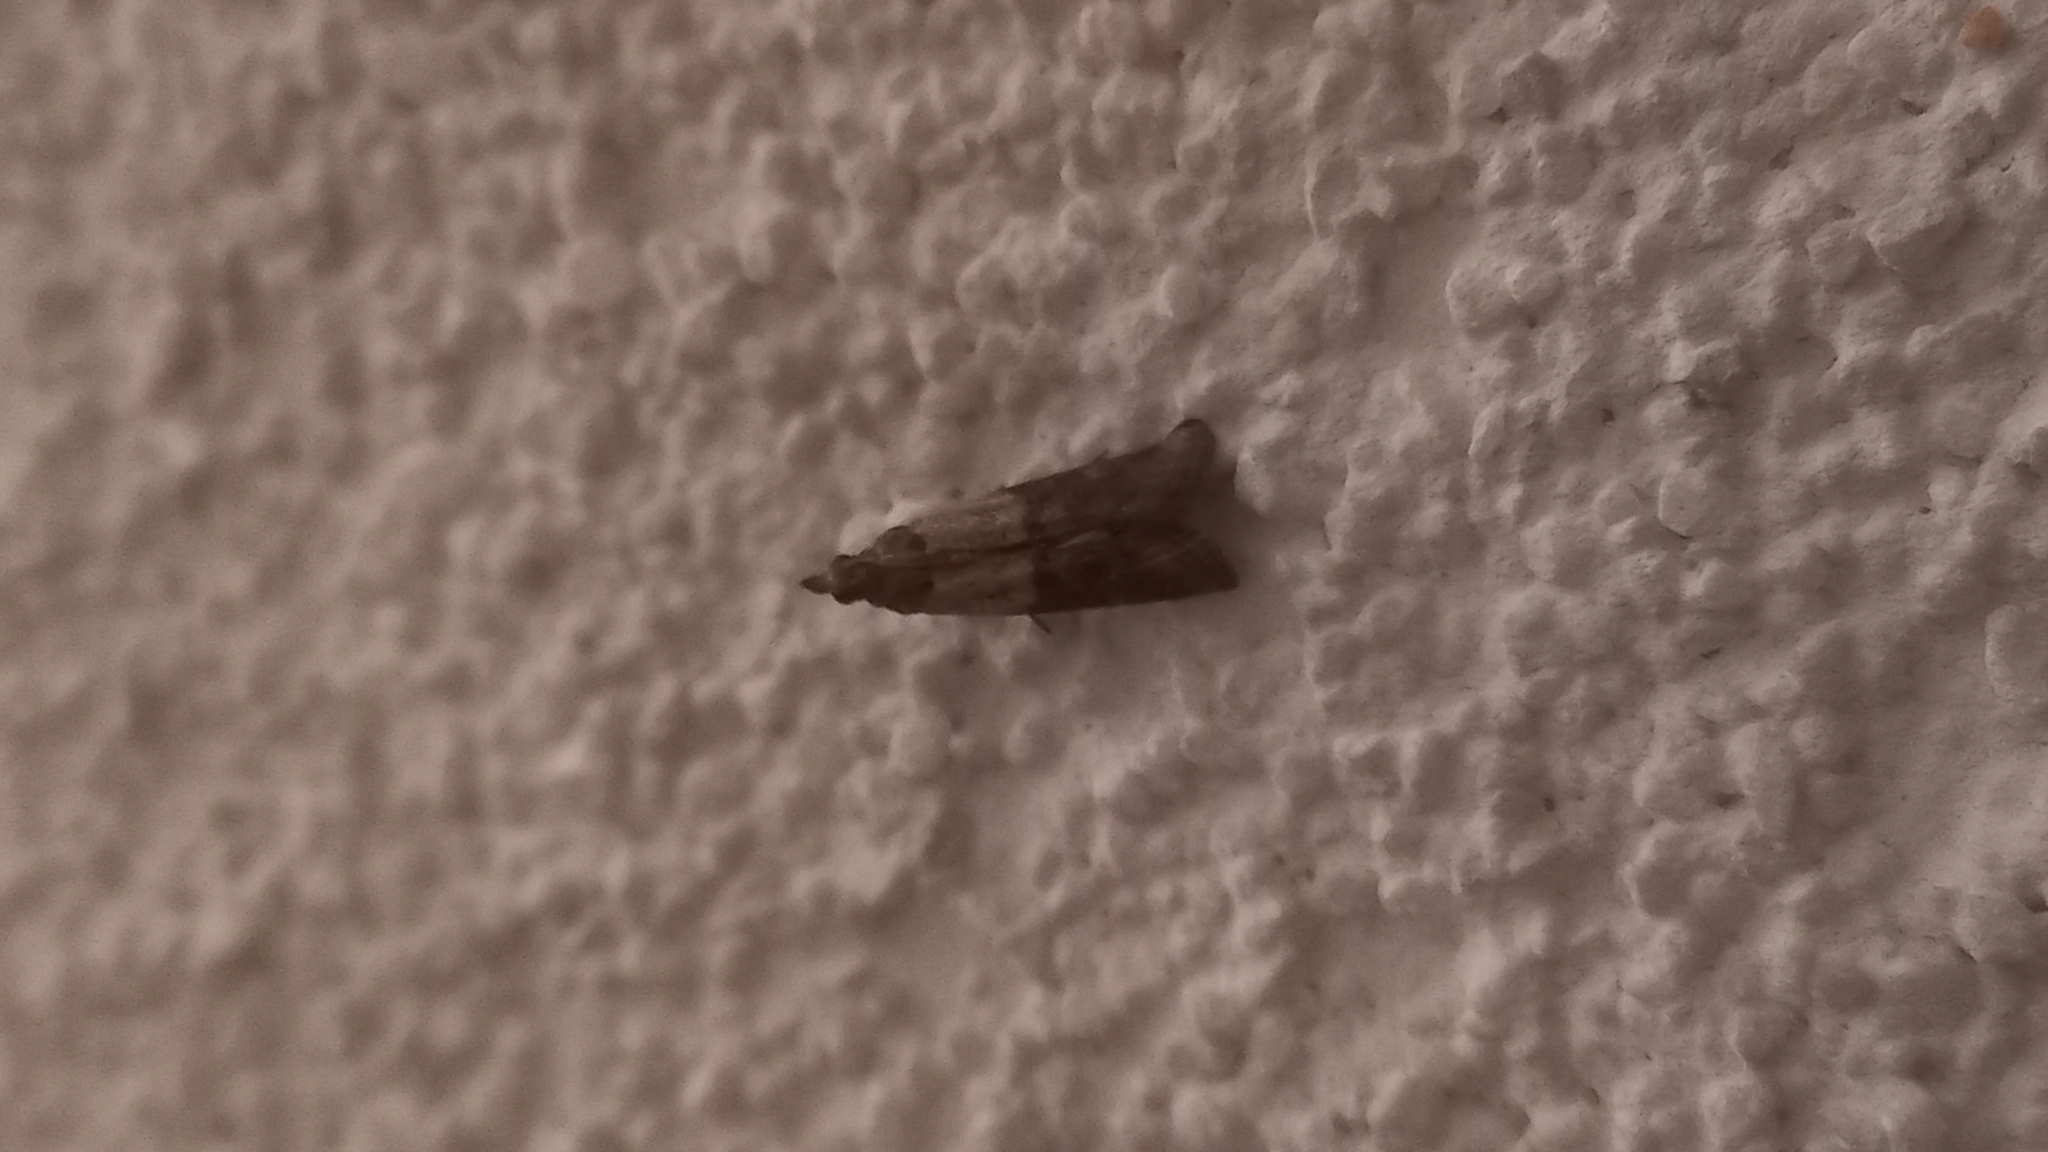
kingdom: Animalia
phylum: Arthropoda
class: Insecta
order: Lepidoptera
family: Pyralidae
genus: Plodia
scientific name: Plodia interpunctella
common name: Indian meal moth
